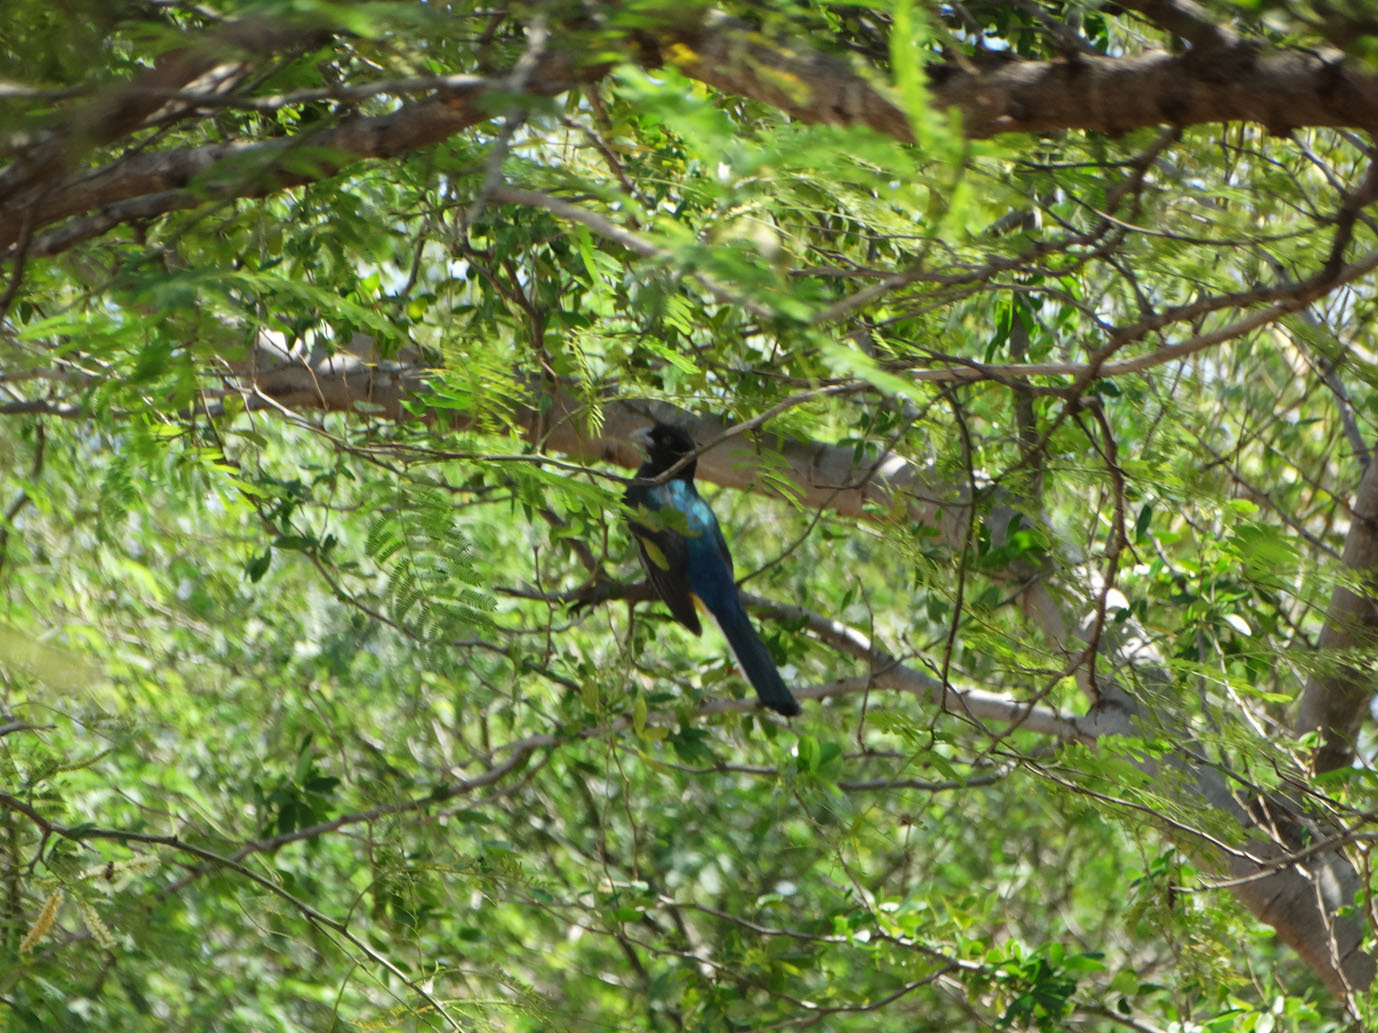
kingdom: Animalia
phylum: Chordata
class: Aves
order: Trogoniformes
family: Trogonidae
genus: Trogon
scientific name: Trogon citreolus
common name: Citreoline trogon
